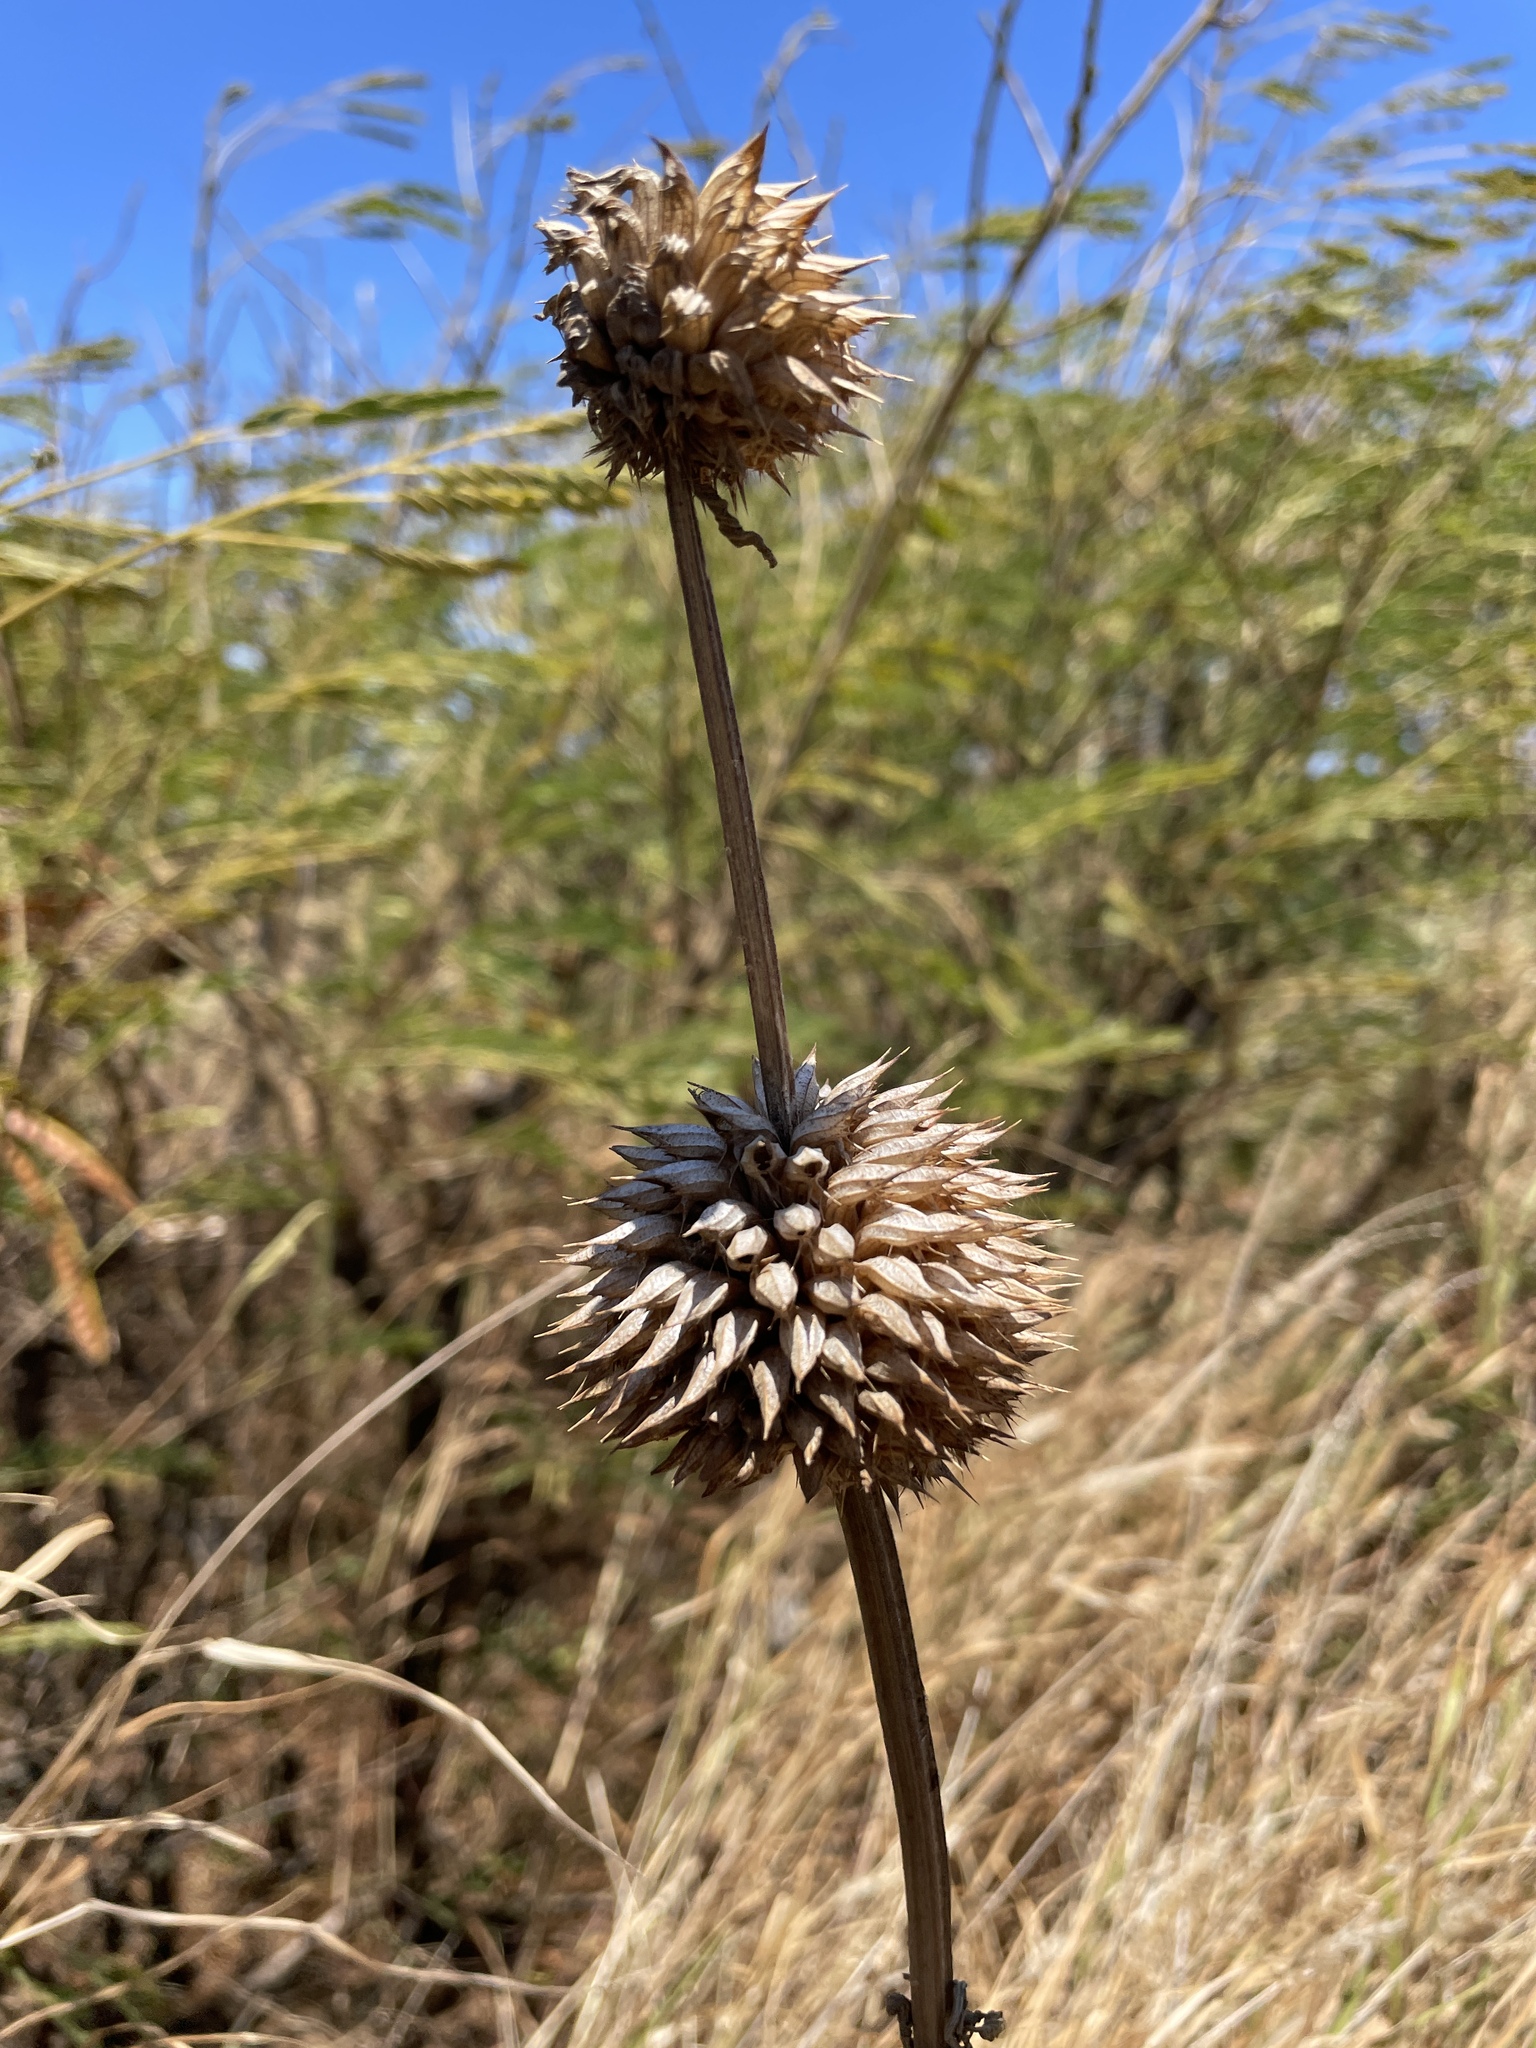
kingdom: Plantae
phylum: Tracheophyta
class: Magnoliopsida
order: Lamiales
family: Lamiaceae
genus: Leonotis
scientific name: Leonotis nepetifolia
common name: Christmas candlestick
